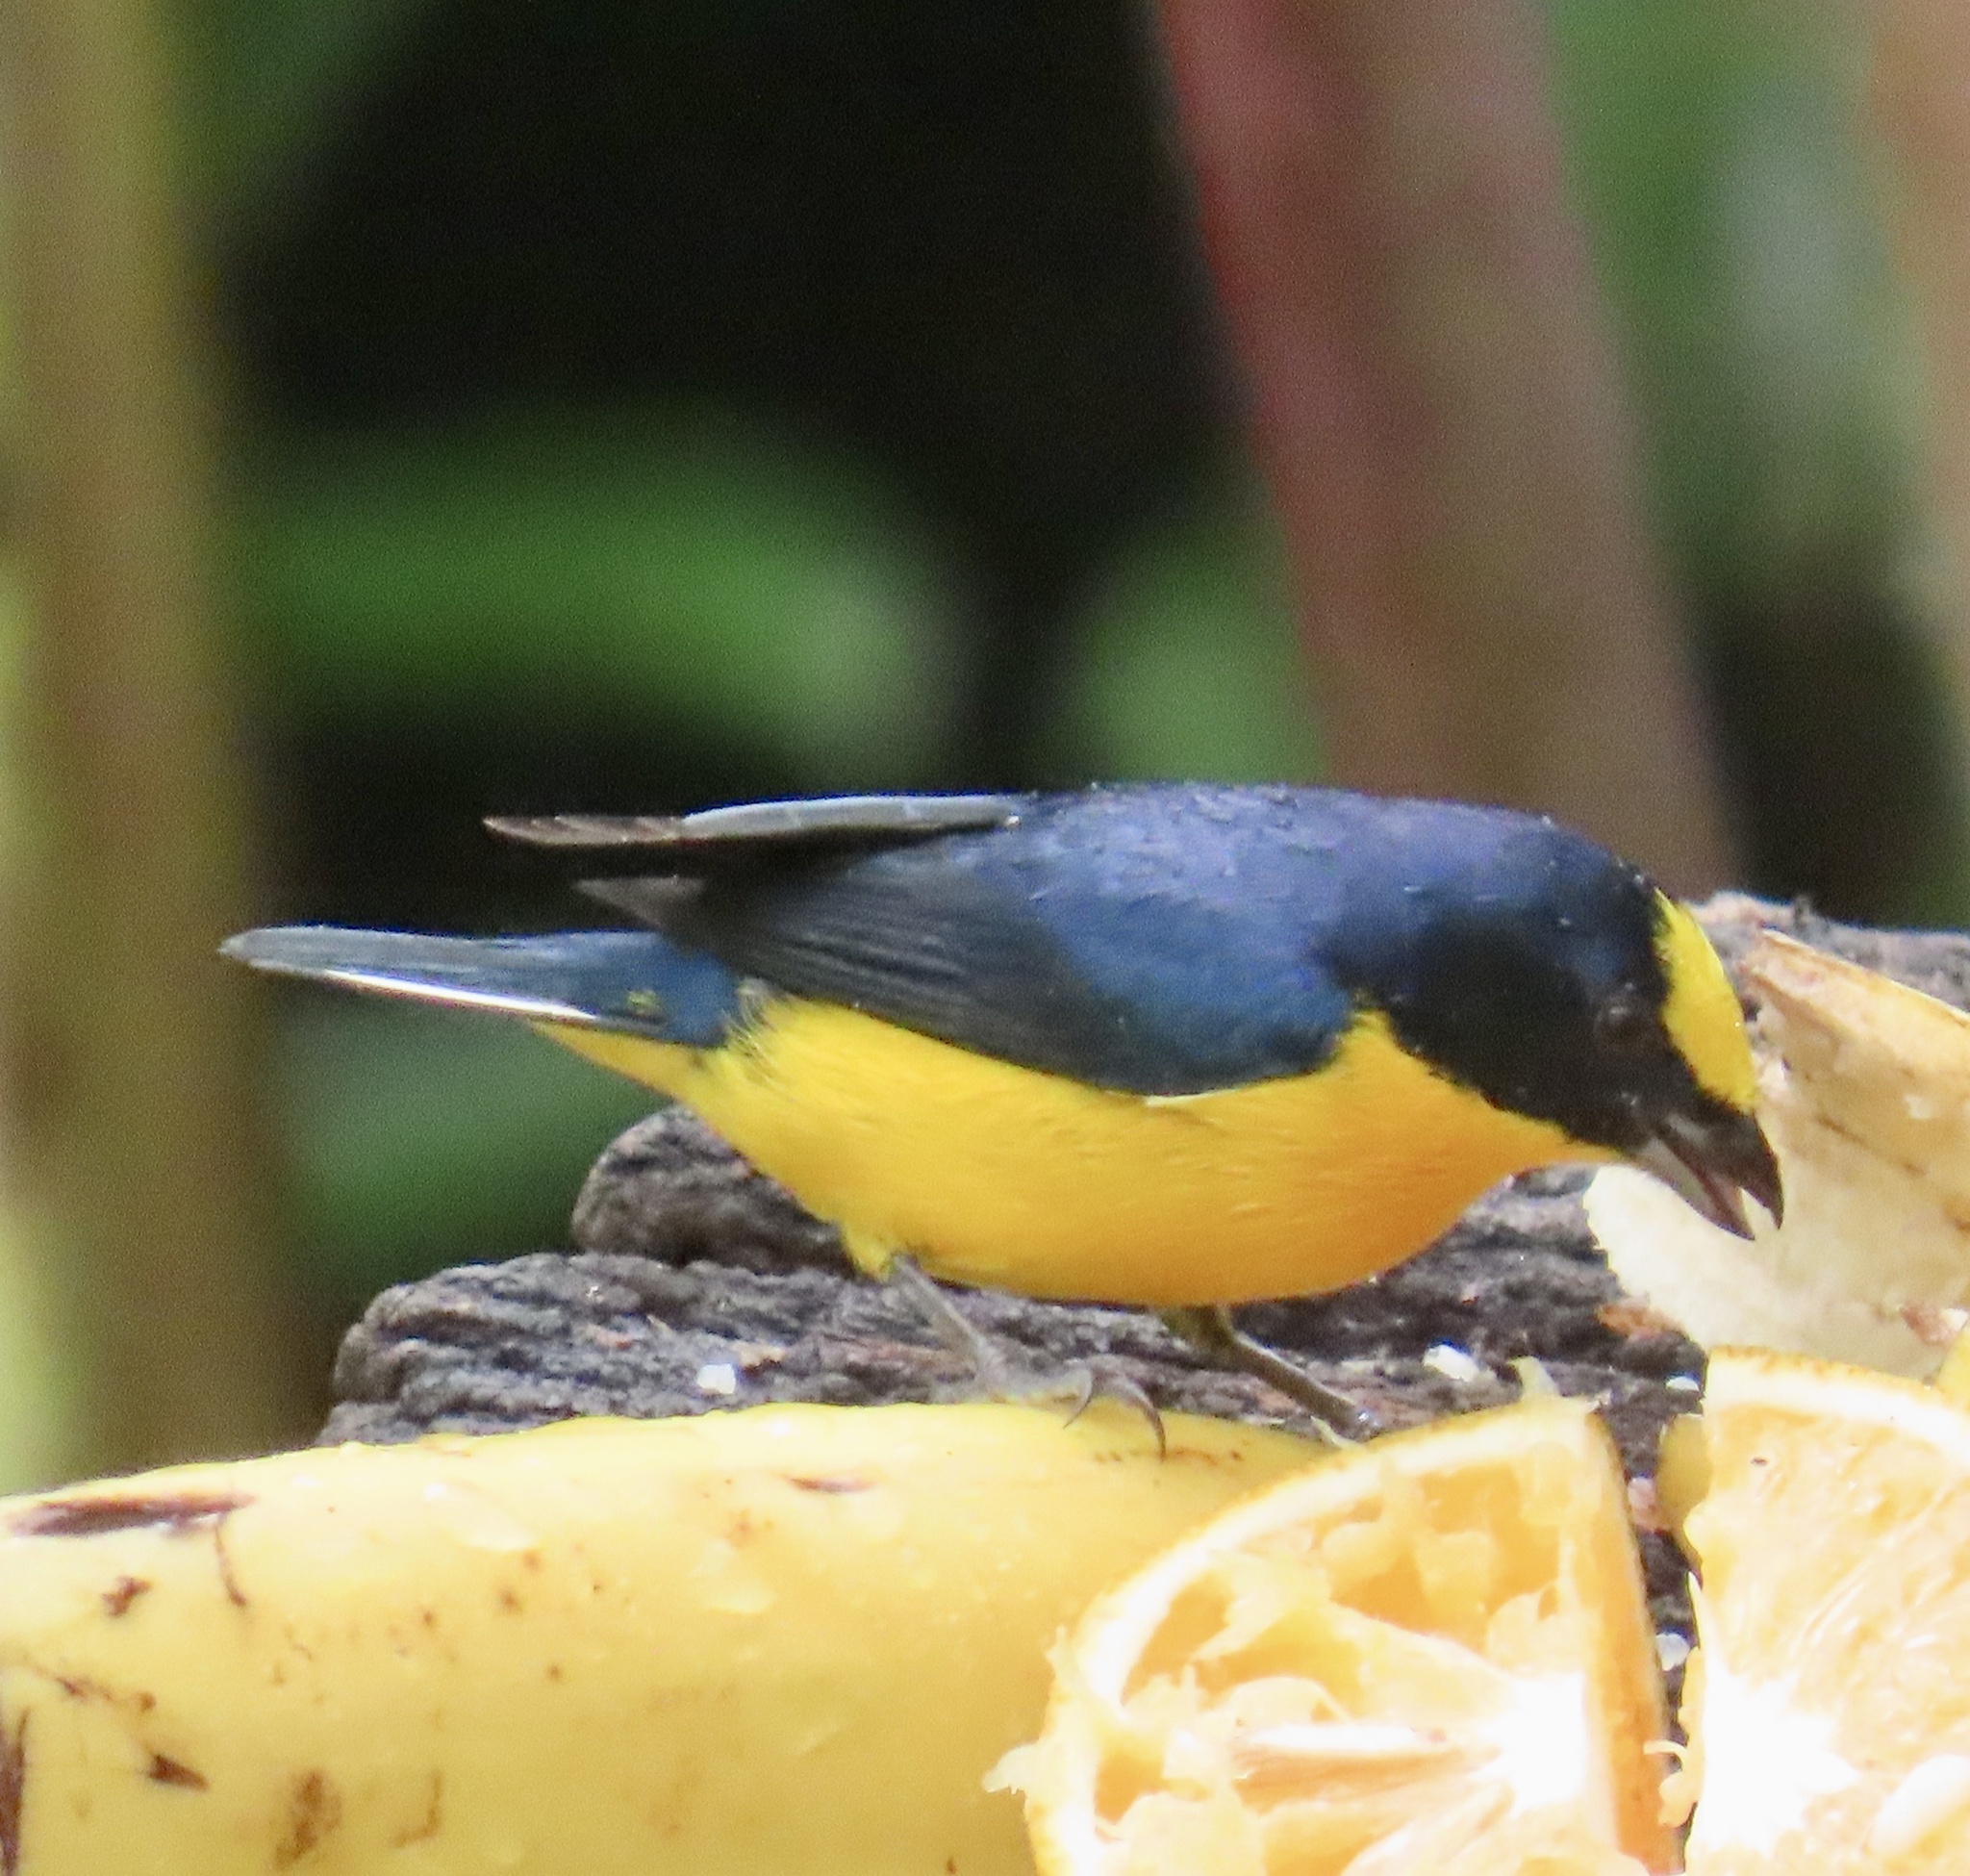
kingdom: Animalia
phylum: Chordata
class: Aves
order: Passeriformes
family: Fringillidae
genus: Euphonia
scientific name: Euphonia laniirostris
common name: Thick-billed euphonia
